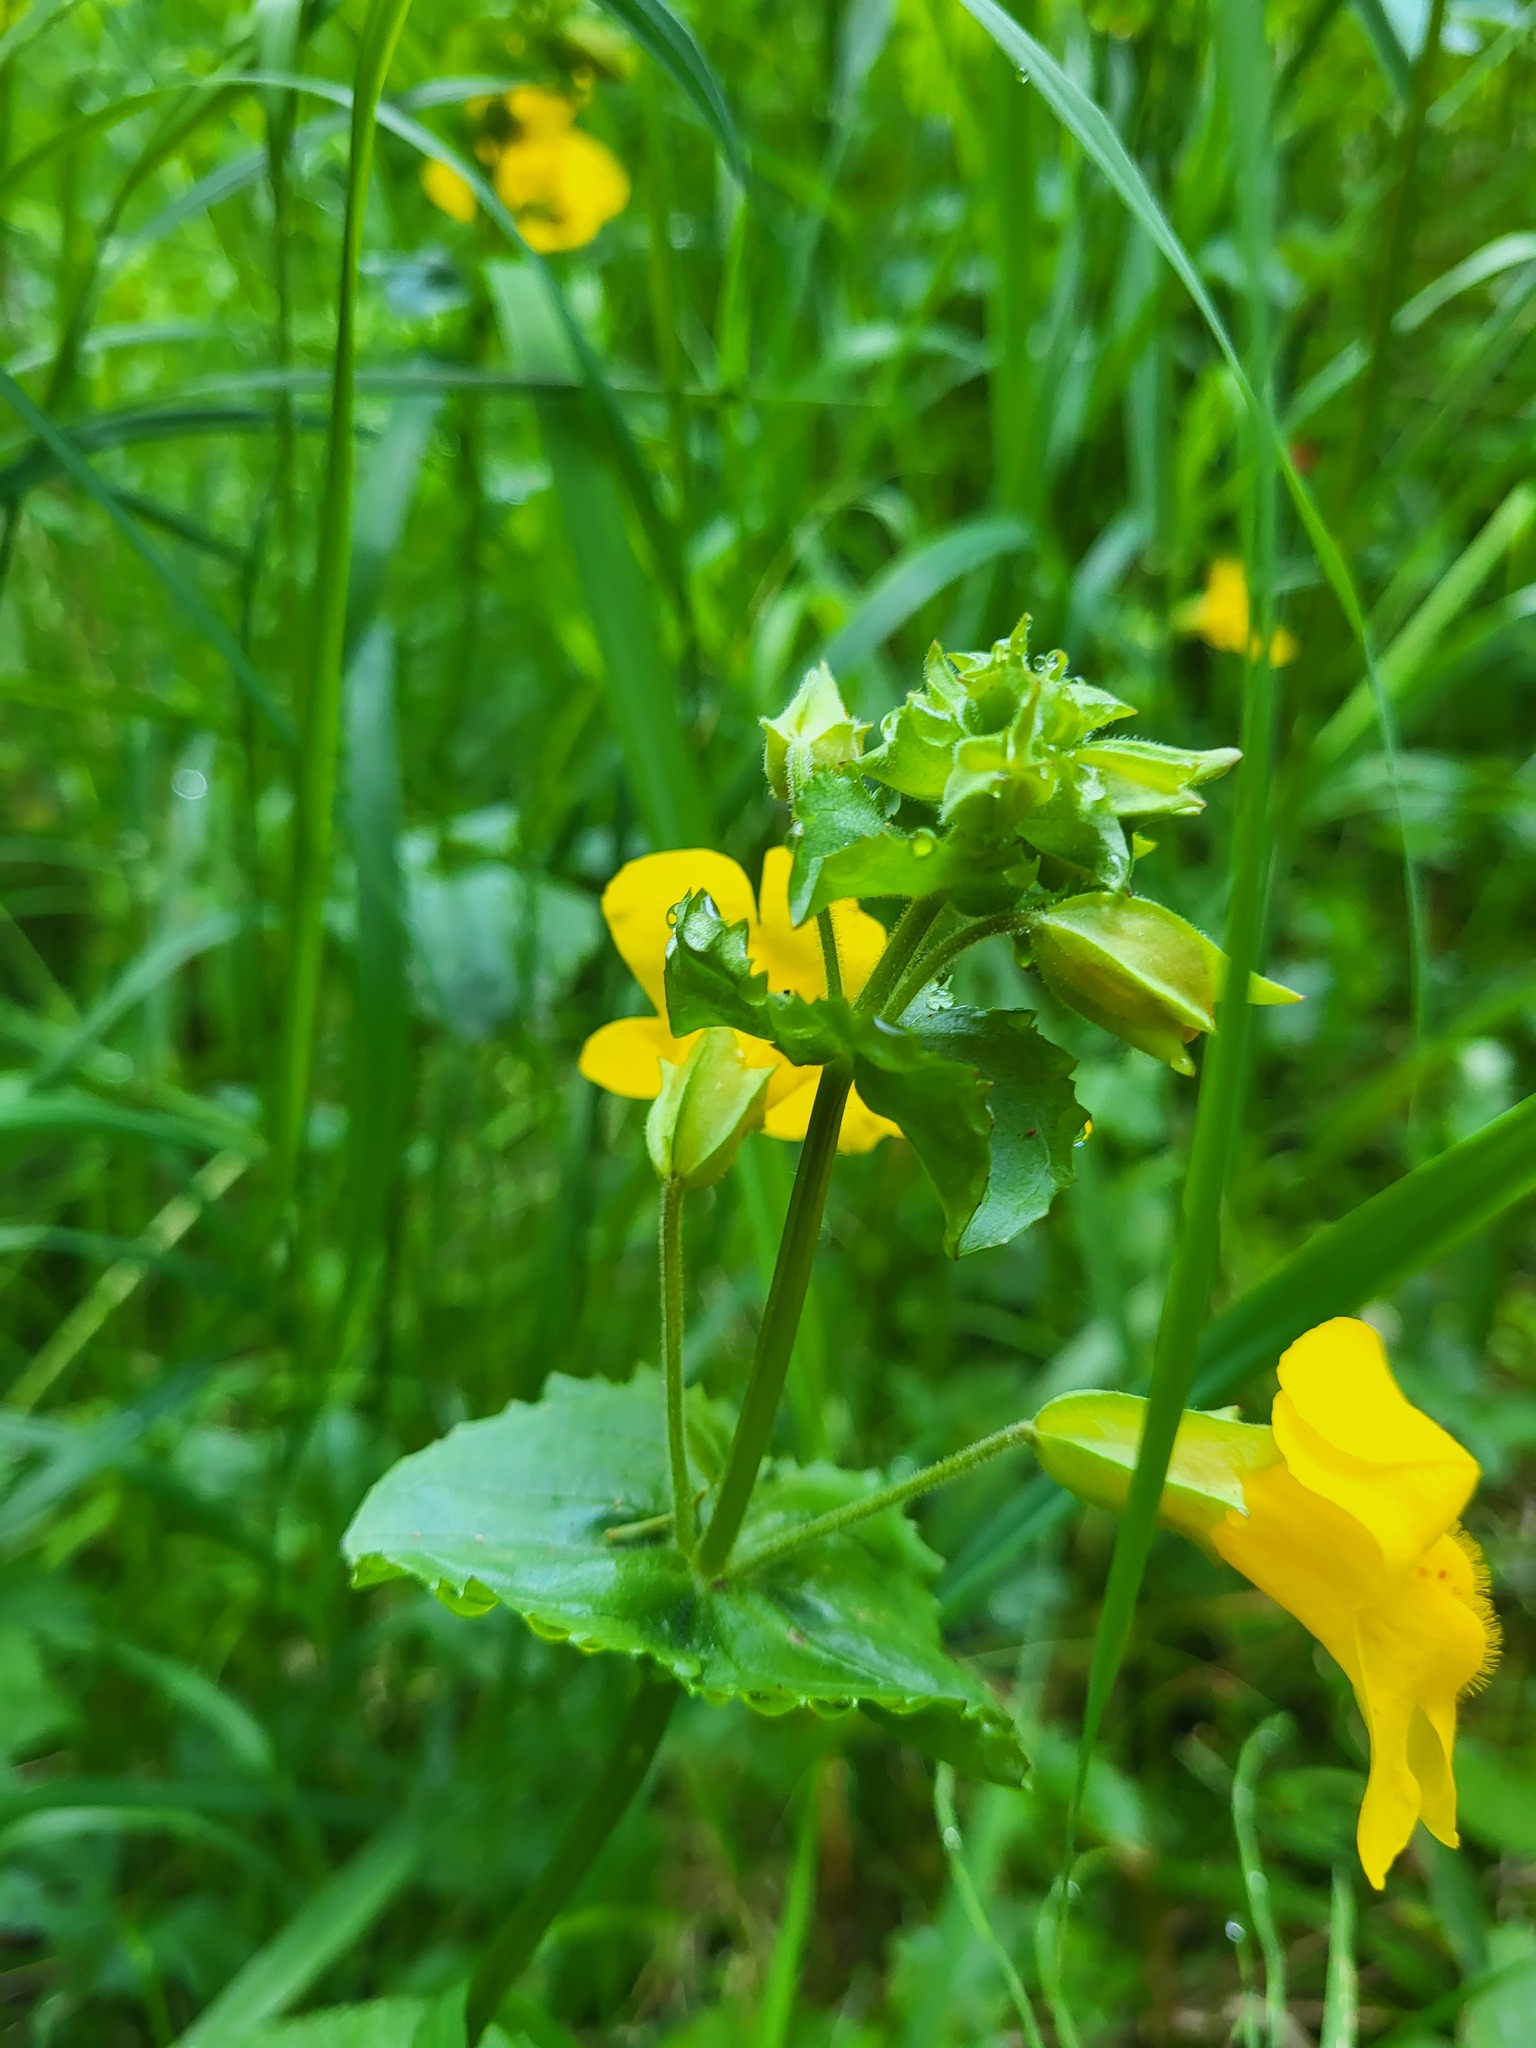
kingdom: Plantae
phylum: Tracheophyta
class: Magnoliopsida
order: Lamiales
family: Phrymaceae
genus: Erythranthe
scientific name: Erythranthe guttata
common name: Monkeyflower
